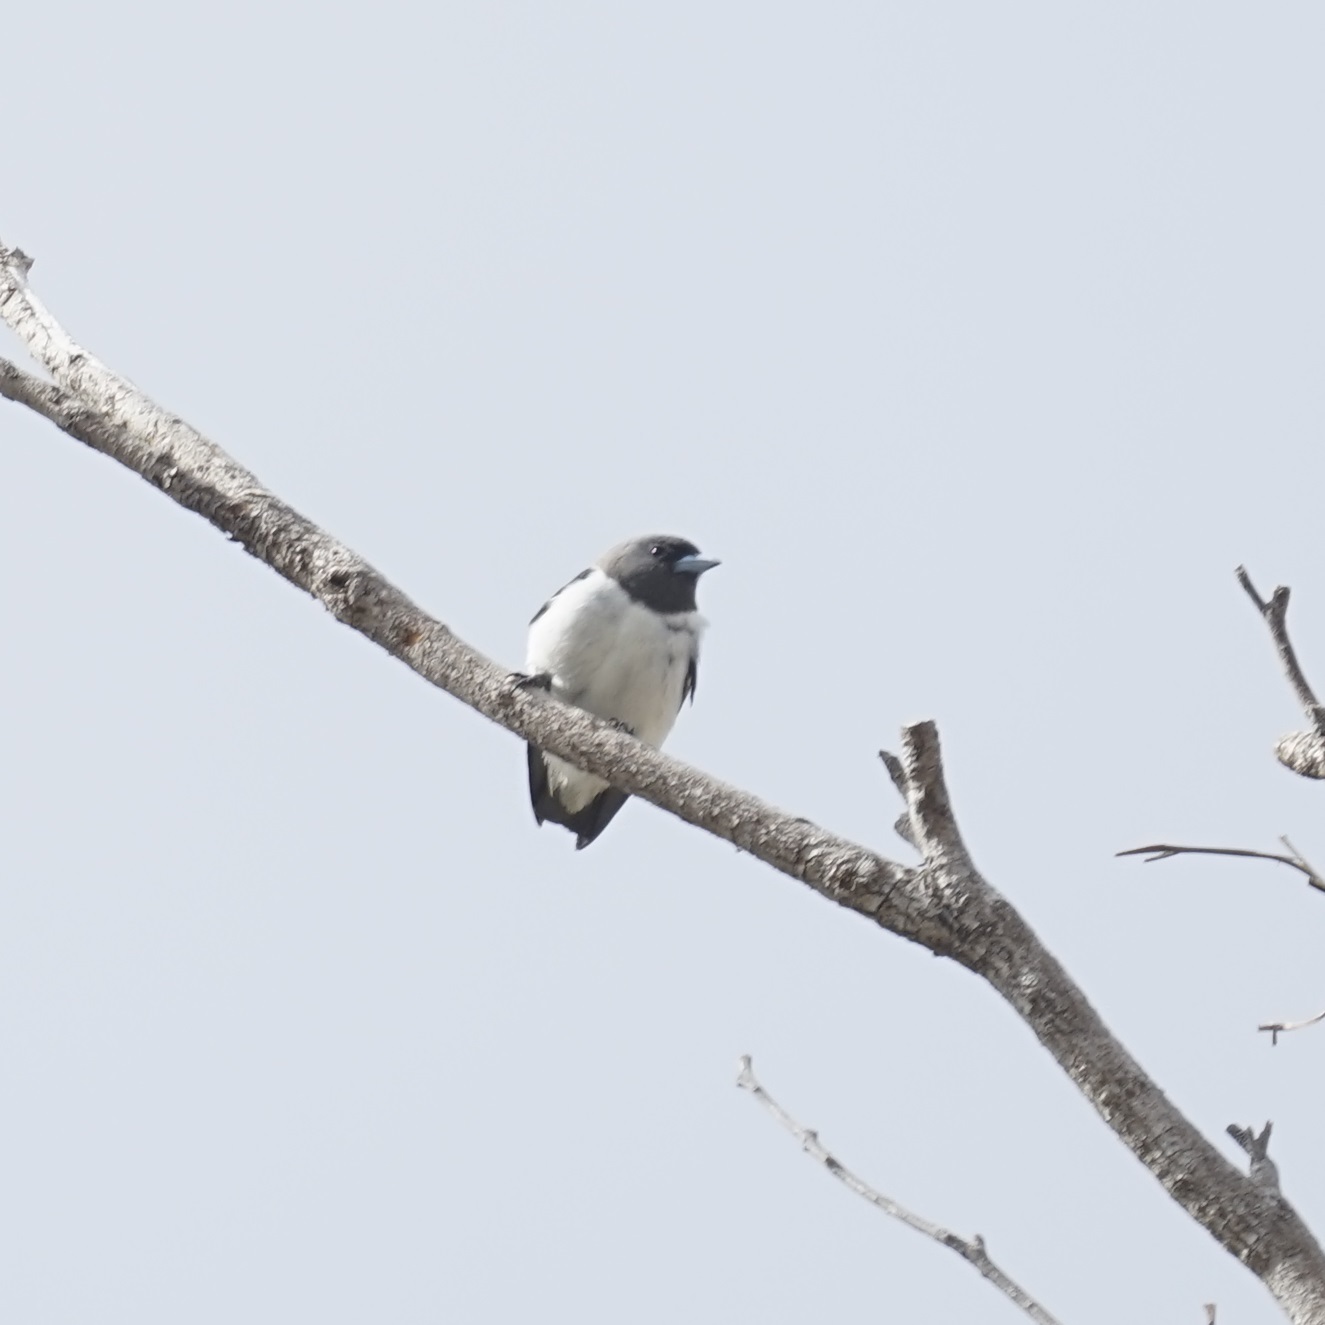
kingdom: Animalia
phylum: Chordata
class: Aves
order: Passeriformes
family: Artamidae
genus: Artamus
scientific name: Artamus leucoryn
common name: White-breasted woodswallow
